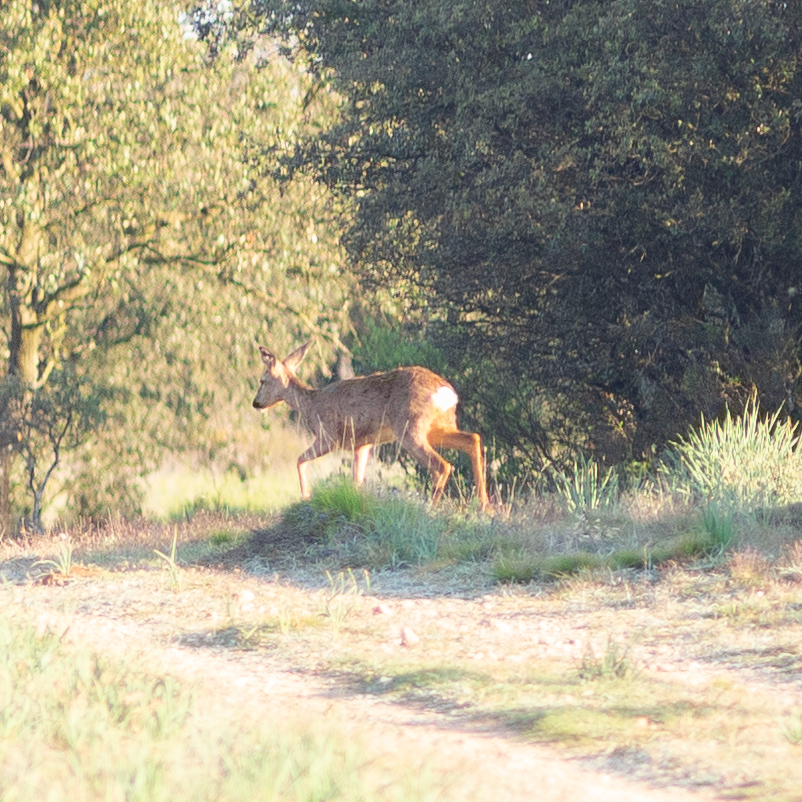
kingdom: Animalia
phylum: Chordata
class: Mammalia
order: Artiodactyla
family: Cervidae
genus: Capreolus
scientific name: Capreolus capreolus
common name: Western roe deer
